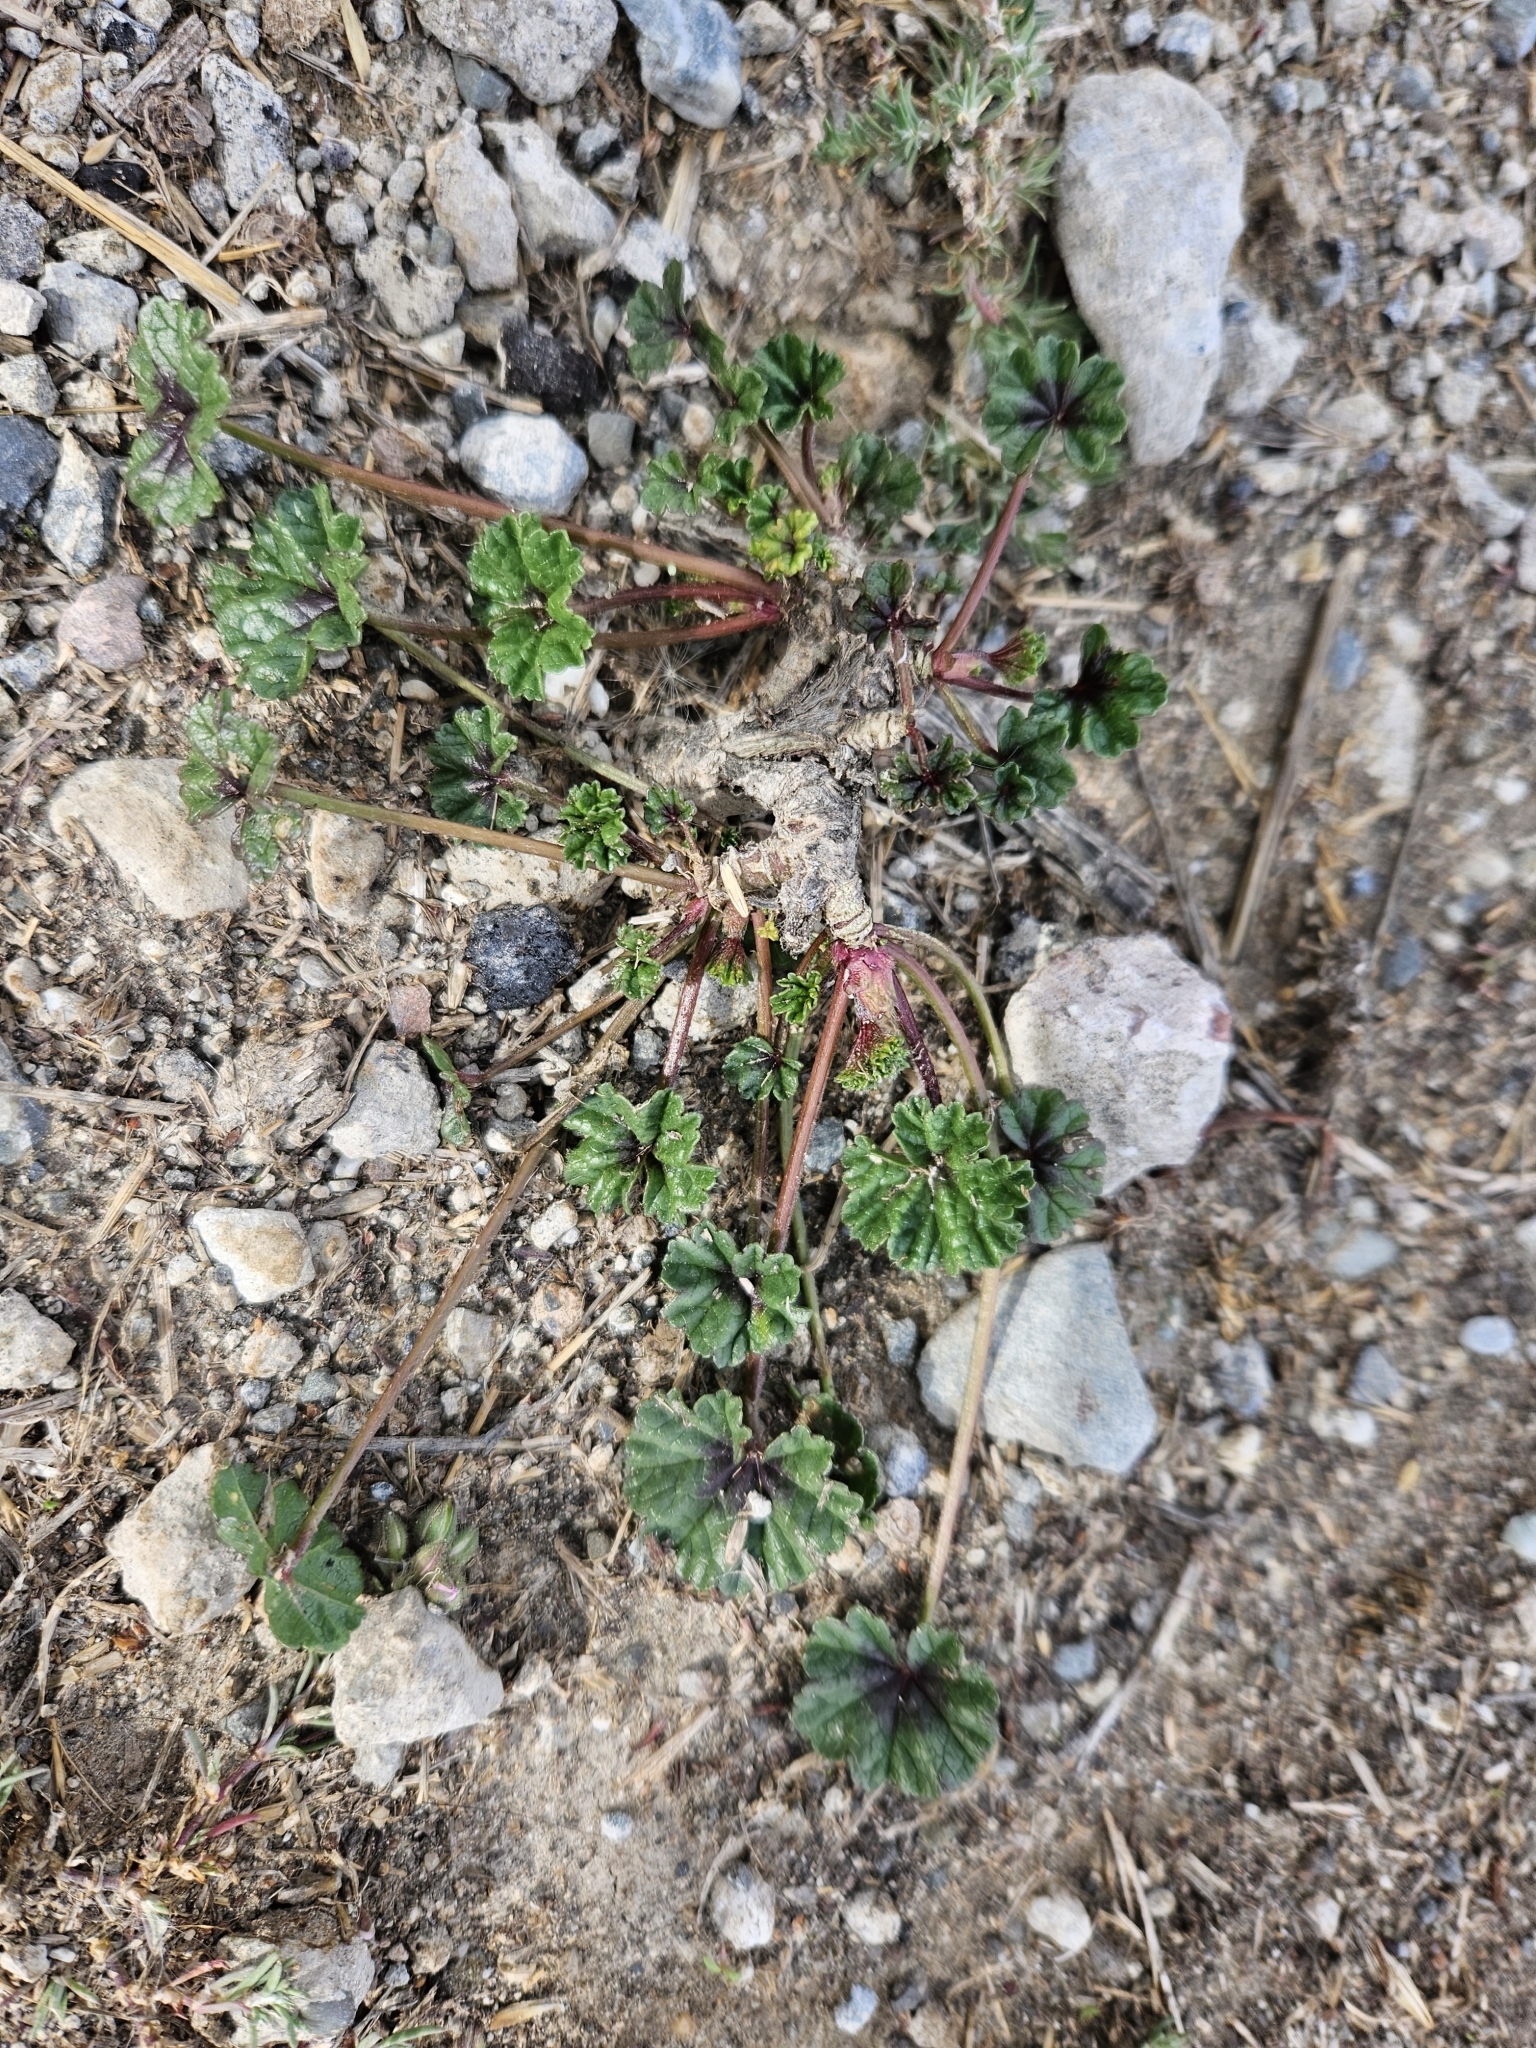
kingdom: Plantae
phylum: Tracheophyta
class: Magnoliopsida
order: Malvales
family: Malvaceae
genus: Malva
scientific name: Malva
